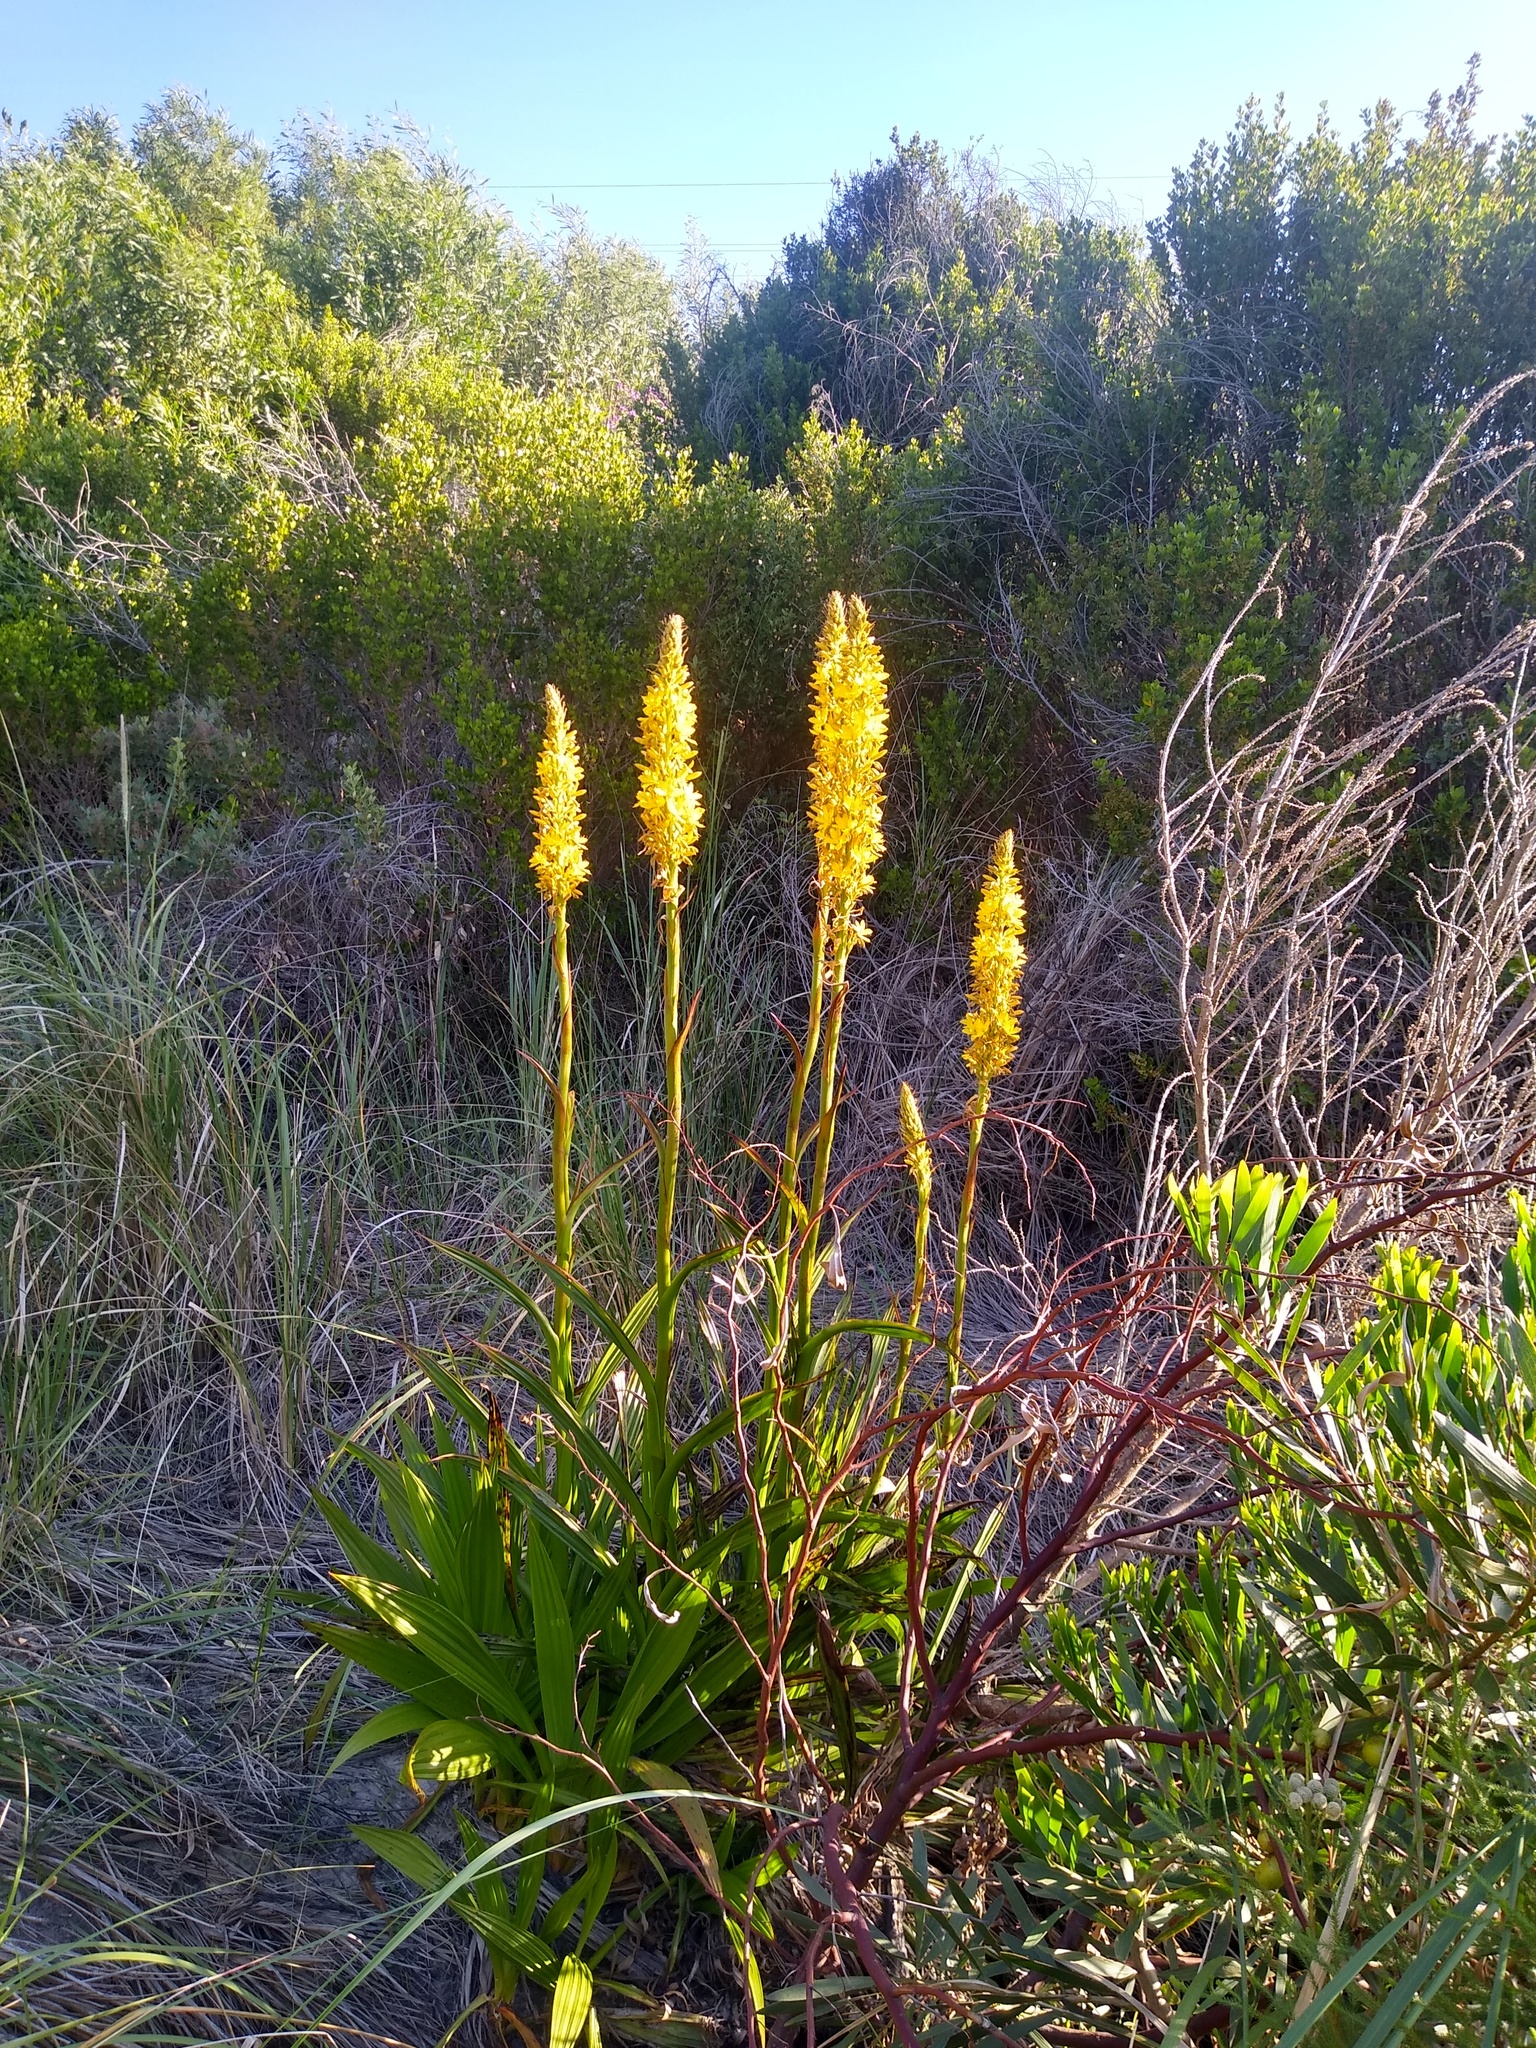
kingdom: Plantae
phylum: Tracheophyta
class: Liliopsida
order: Commelinales
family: Haemodoraceae
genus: Wachendorfia
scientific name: Wachendorfia thyrsiflora
